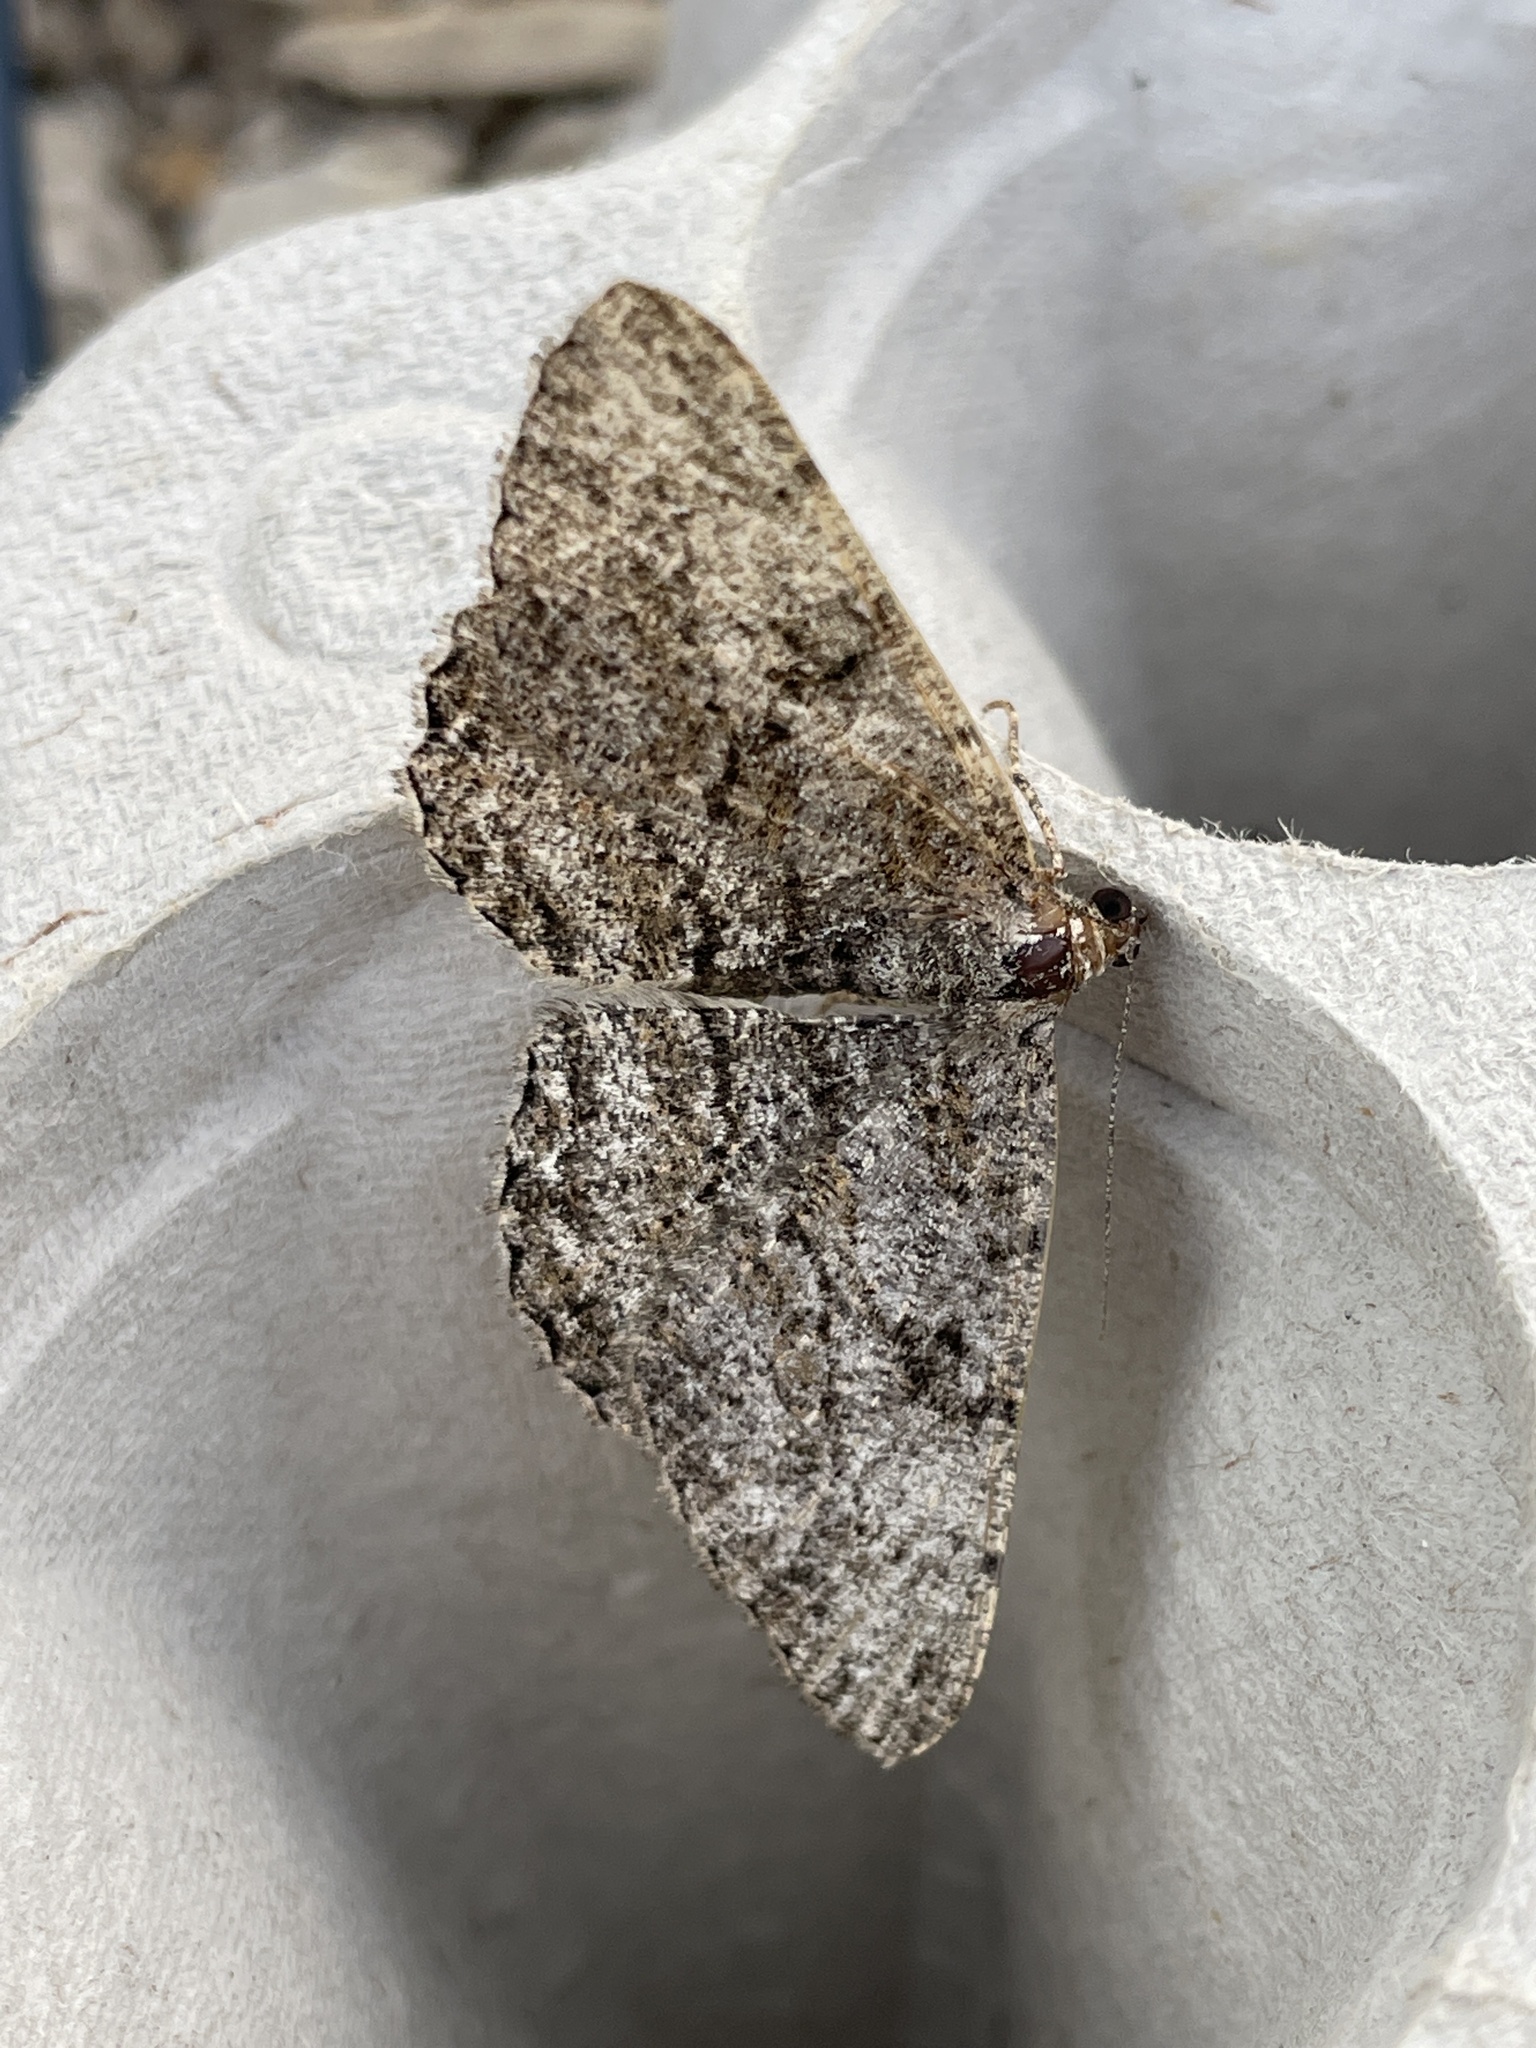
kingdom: Animalia
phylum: Arthropoda
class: Insecta
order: Lepidoptera
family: Geometridae
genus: Peribatodes
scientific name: Peribatodes rhomboidaria
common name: Willow beauty
